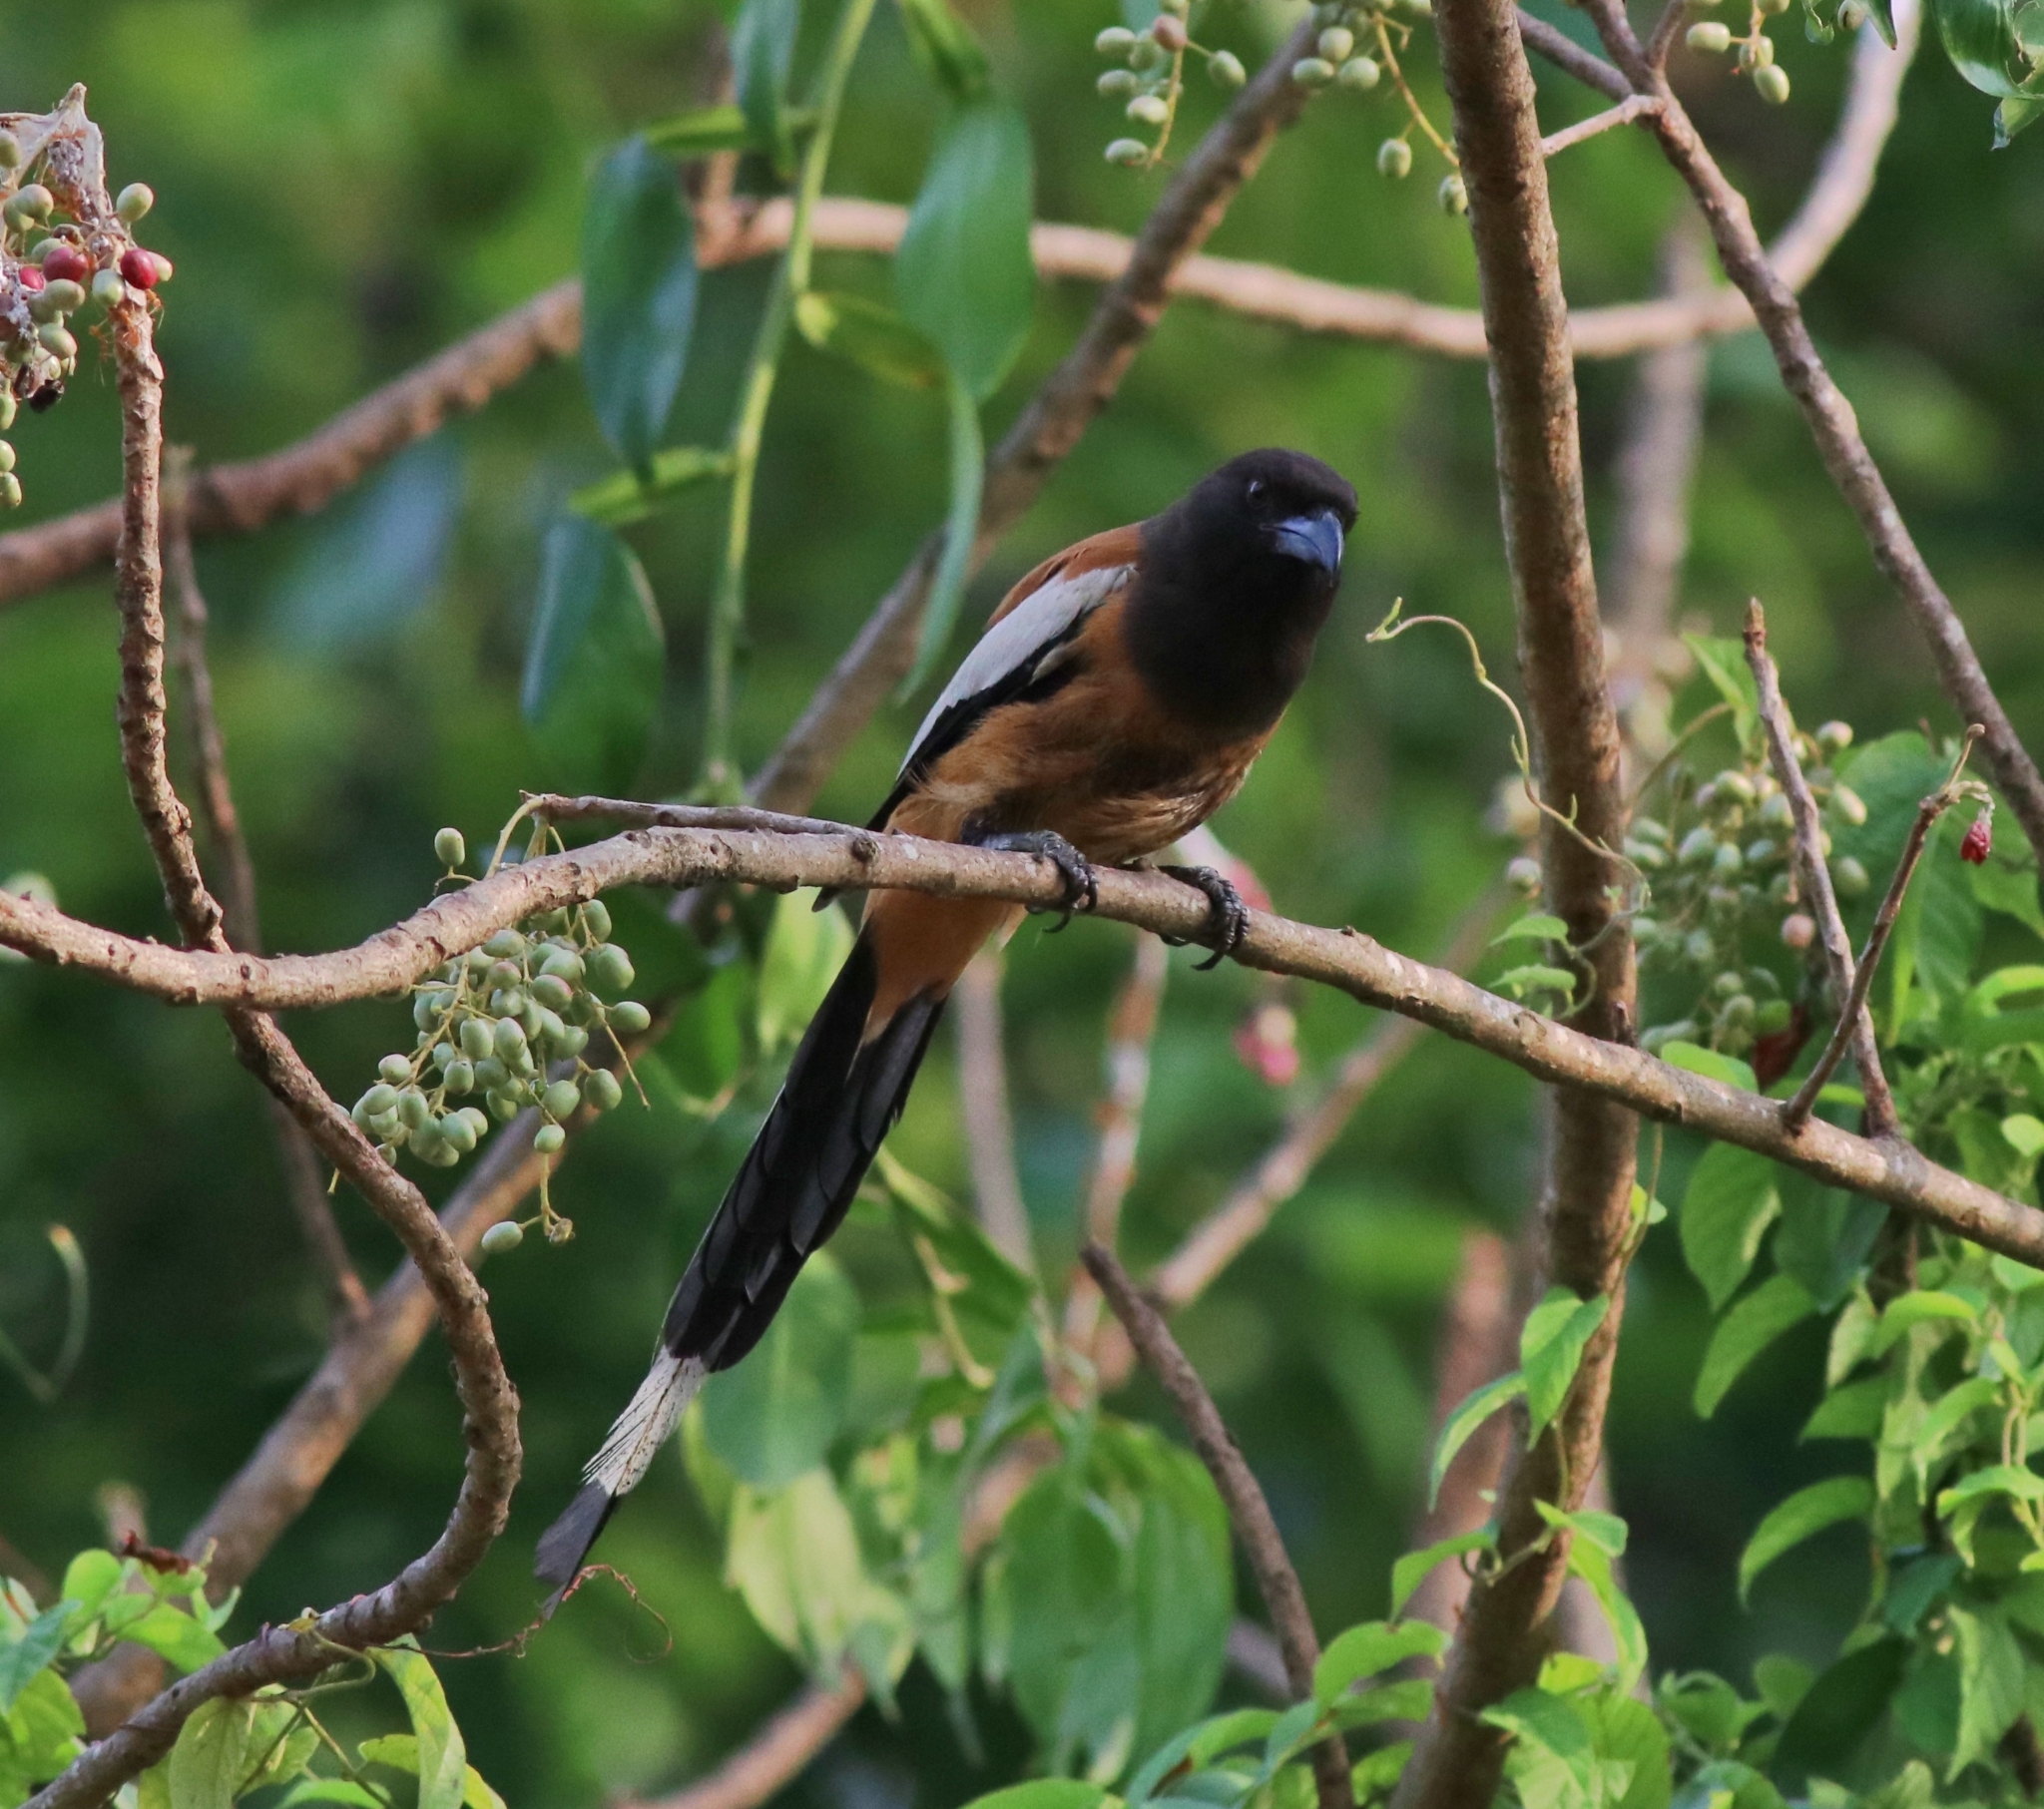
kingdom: Animalia
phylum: Chordata
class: Aves
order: Passeriformes
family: Corvidae
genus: Dendrocitta
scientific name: Dendrocitta vagabunda
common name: Rufous treepie
